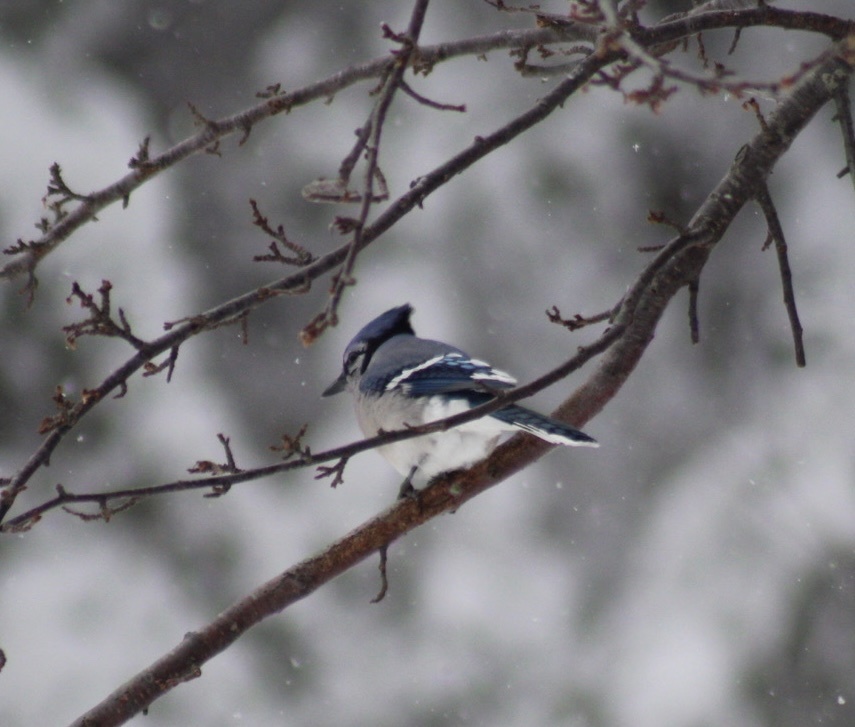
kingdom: Animalia
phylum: Chordata
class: Aves
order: Passeriformes
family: Corvidae
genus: Cyanocitta
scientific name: Cyanocitta cristata
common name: Blue jay
